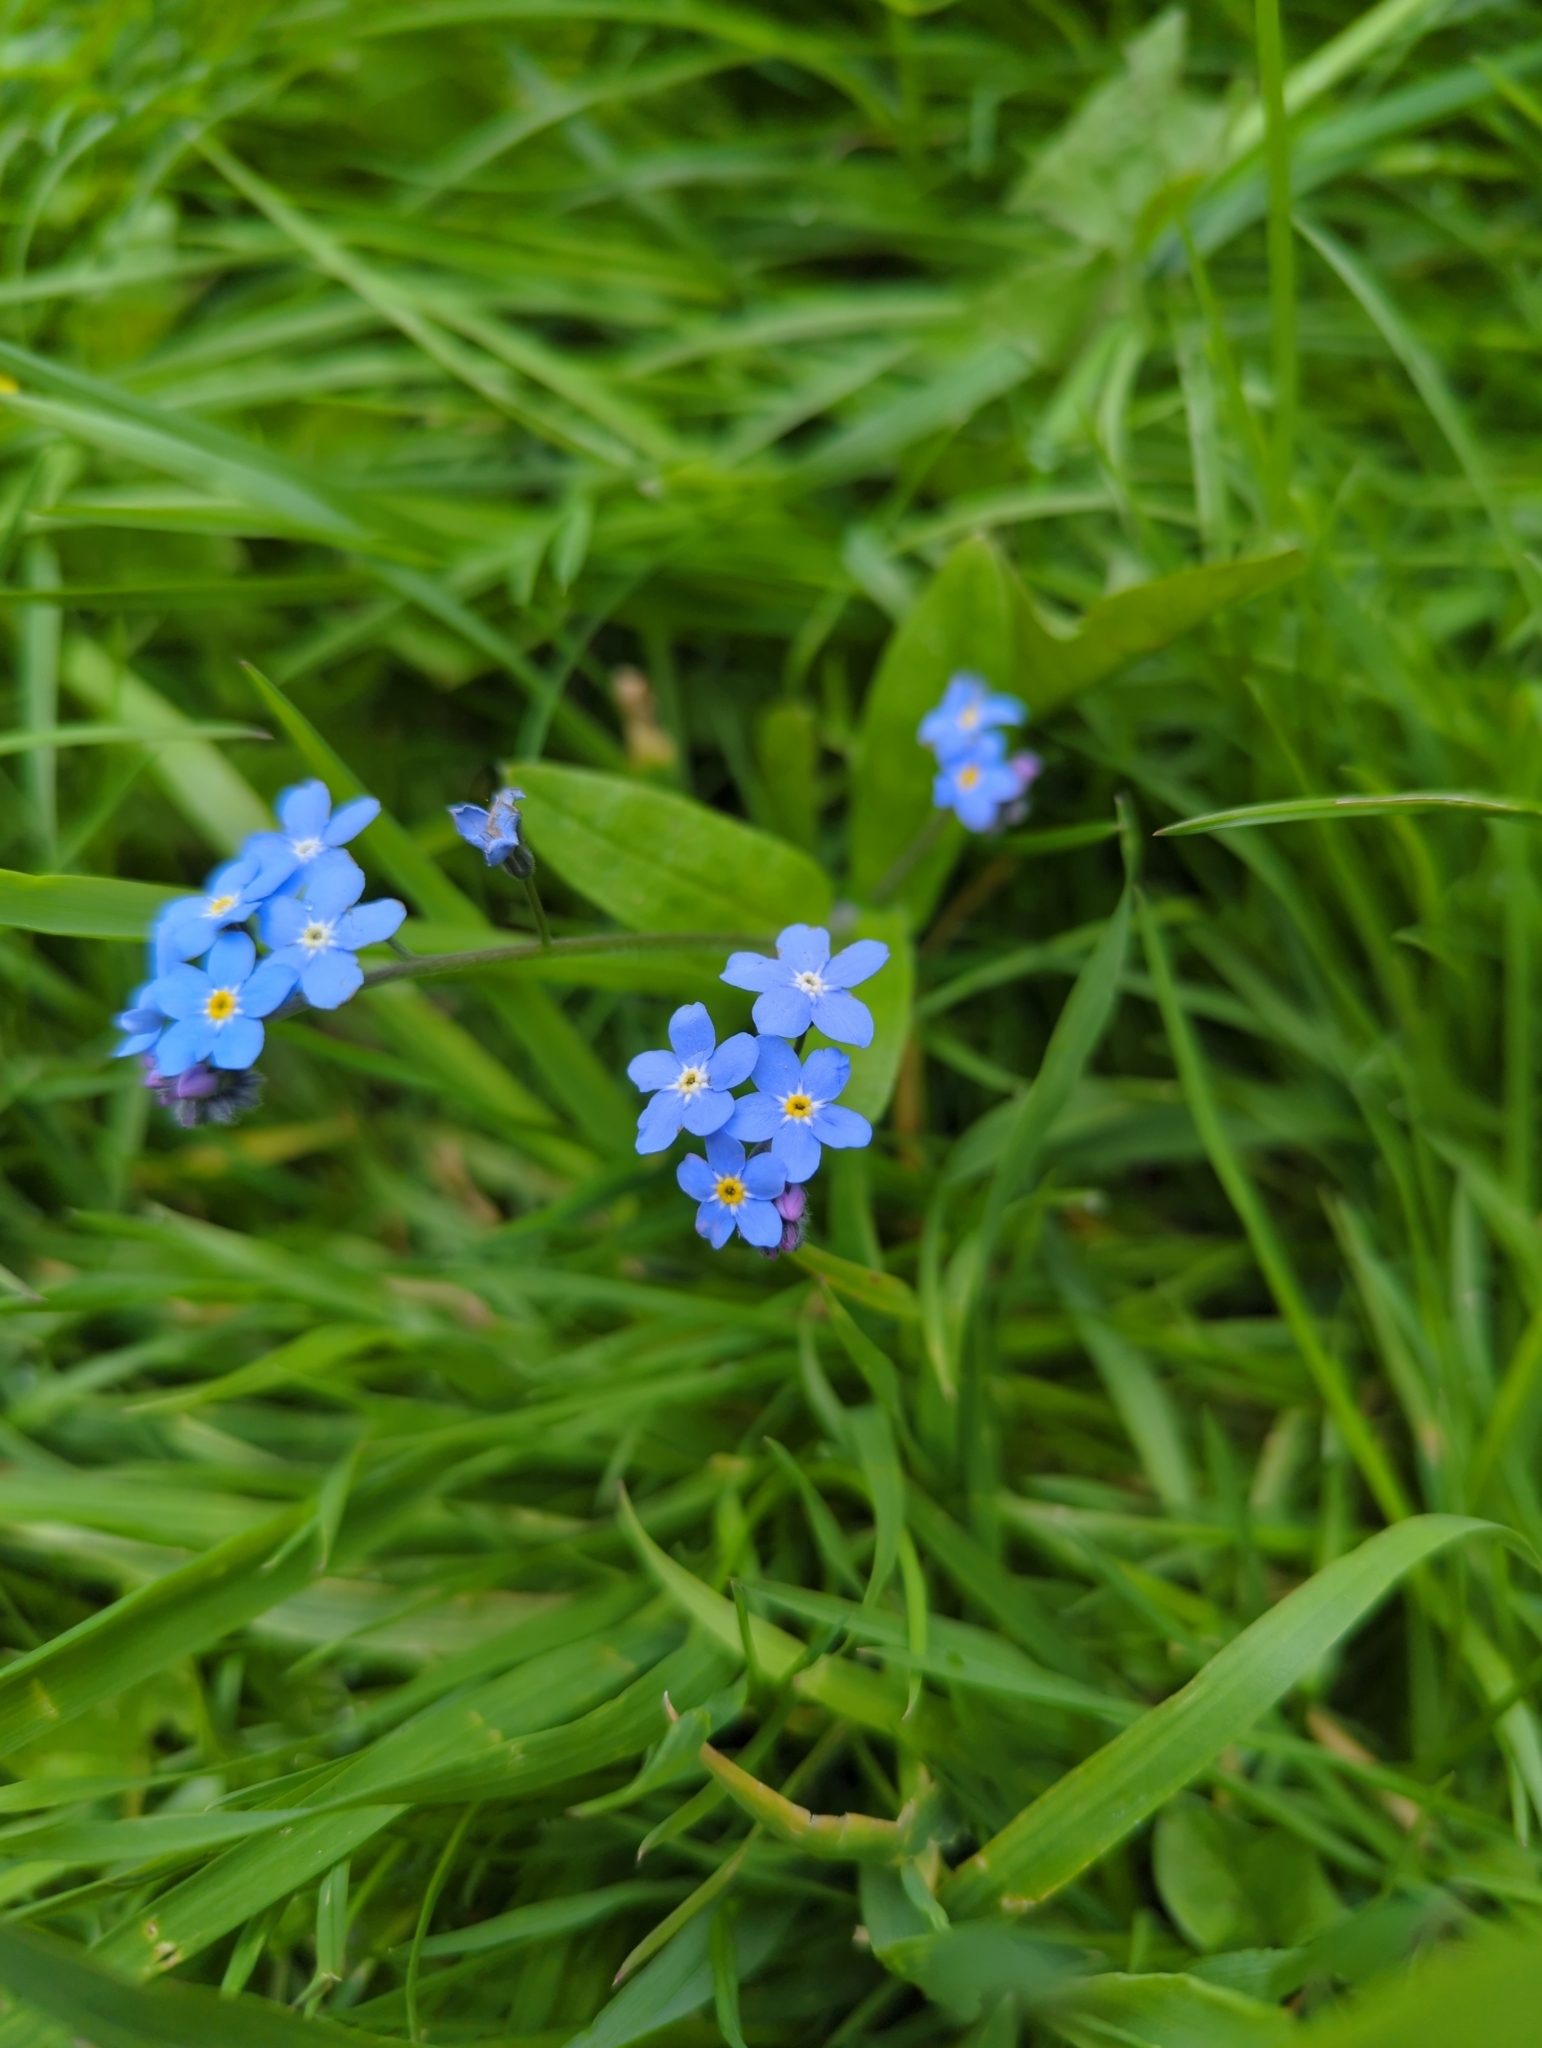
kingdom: Plantae
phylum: Tracheophyta
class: Magnoliopsida
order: Boraginales
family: Boraginaceae
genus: Myosotis
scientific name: Myosotis sylvatica
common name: Wood forget-me-not
